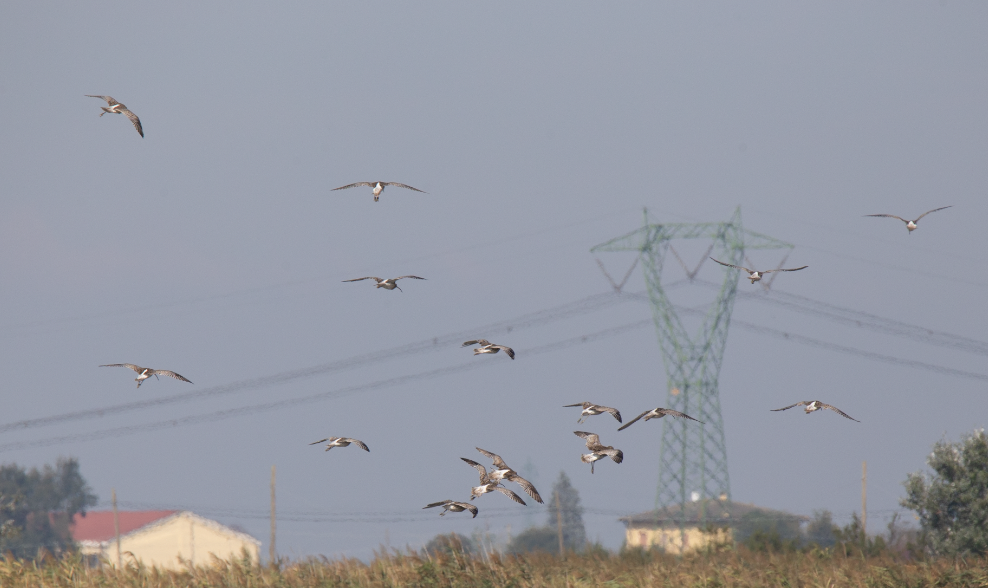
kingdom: Animalia
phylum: Chordata
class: Aves
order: Charadriiformes
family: Scolopacidae
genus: Numenius
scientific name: Numenius arquata
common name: Eurasian curlew
